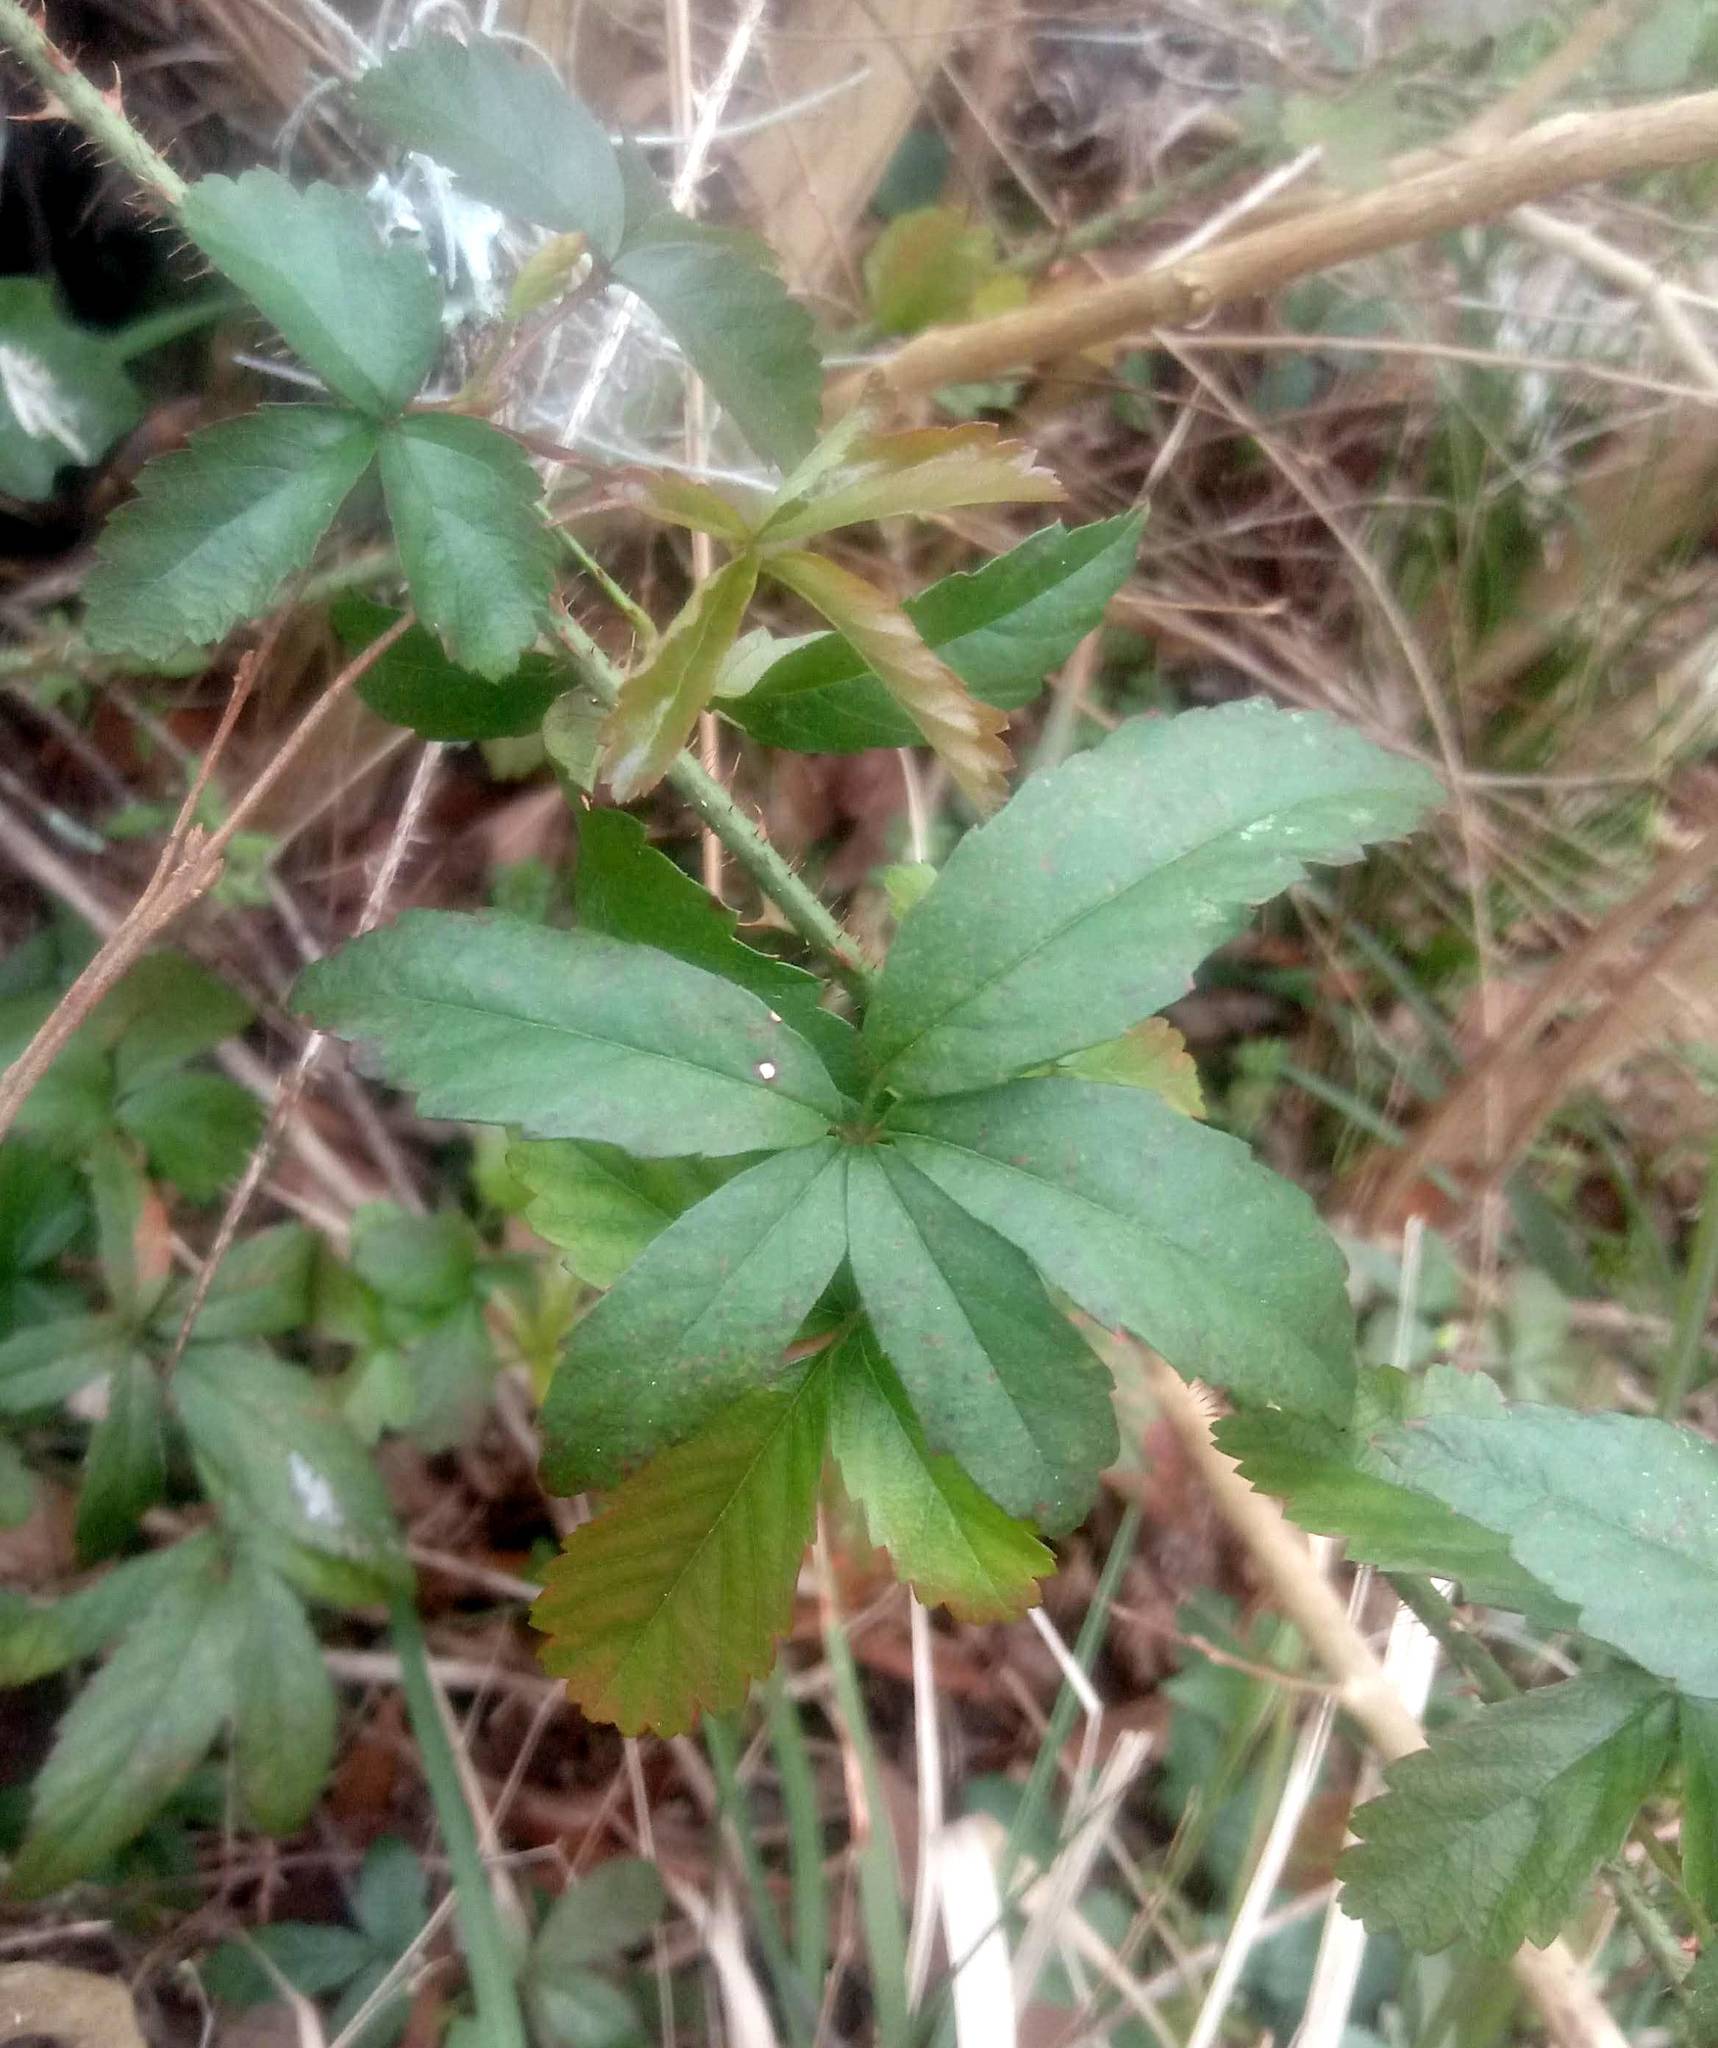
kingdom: Plantae
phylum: Tracheophyta
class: Magnoliopsida
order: Rosales
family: Rosaceae
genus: Rubus
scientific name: Rubus trivialis
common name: Southern dewberry
